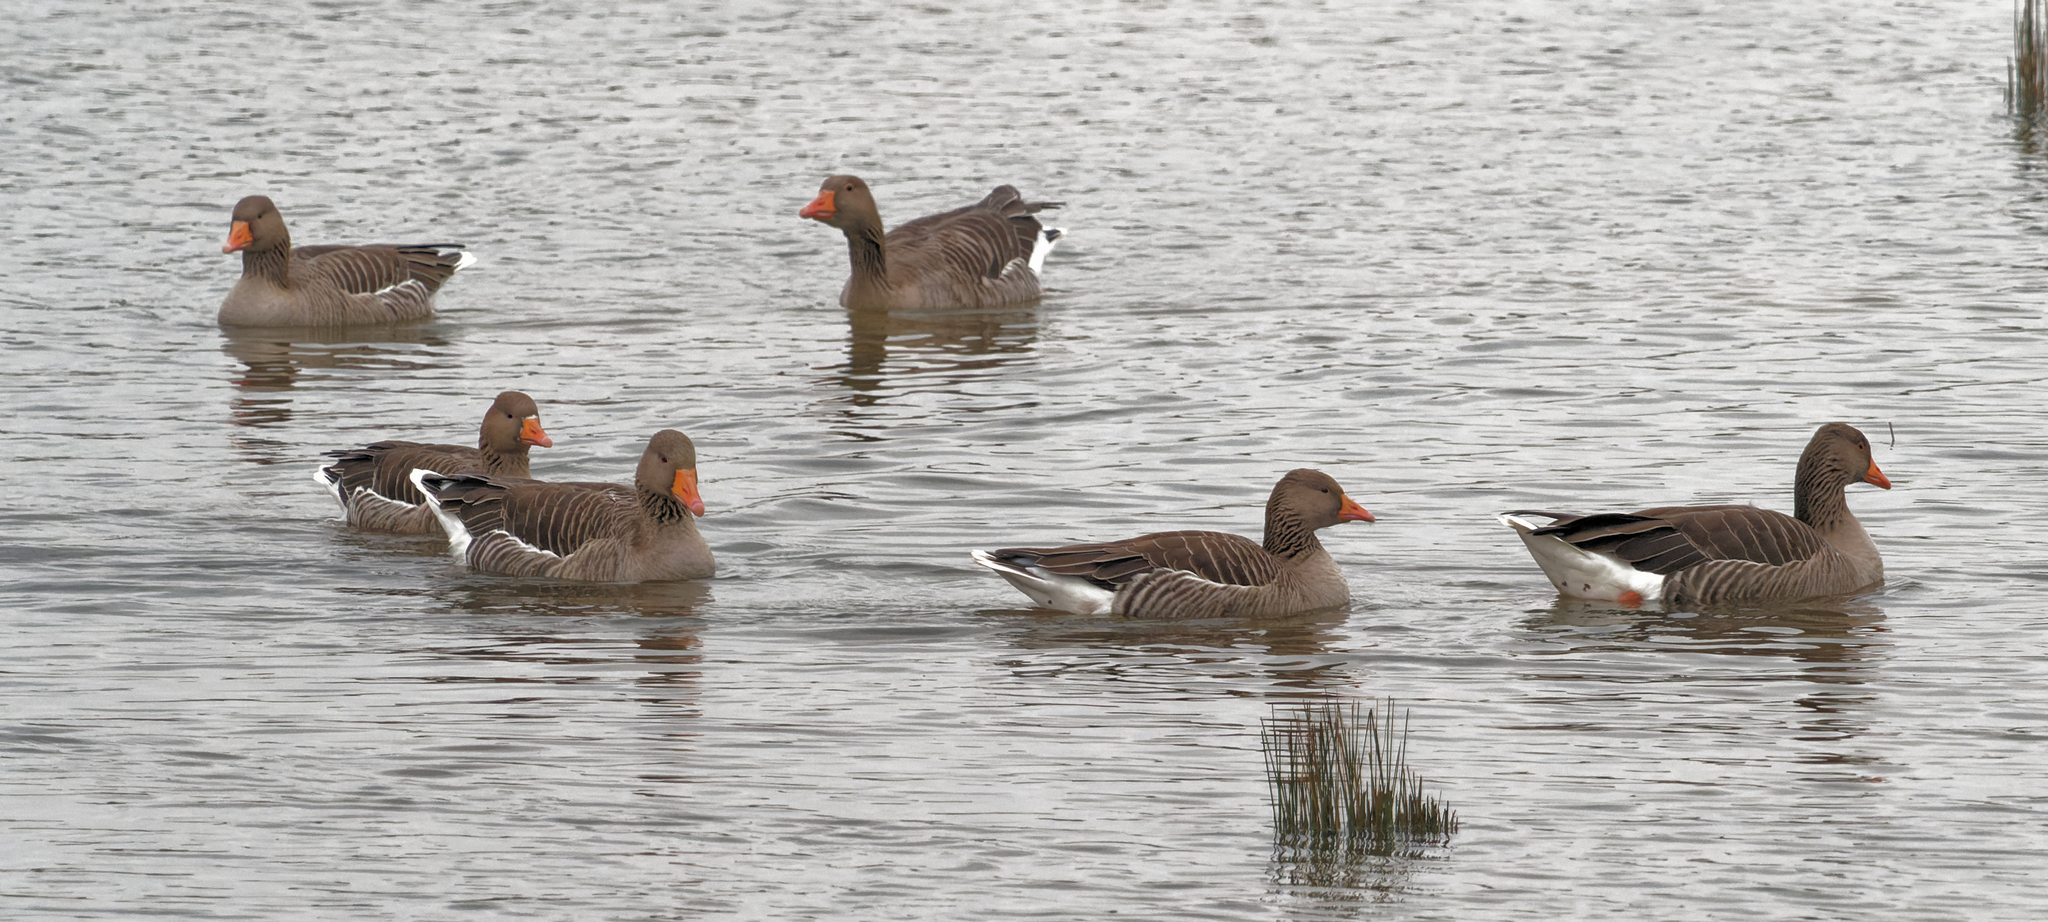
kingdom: Animalia
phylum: Chordata
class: Aves
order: Anseriformes
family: Anatidae
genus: Anser
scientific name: Anser anser
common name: Greylag goose
